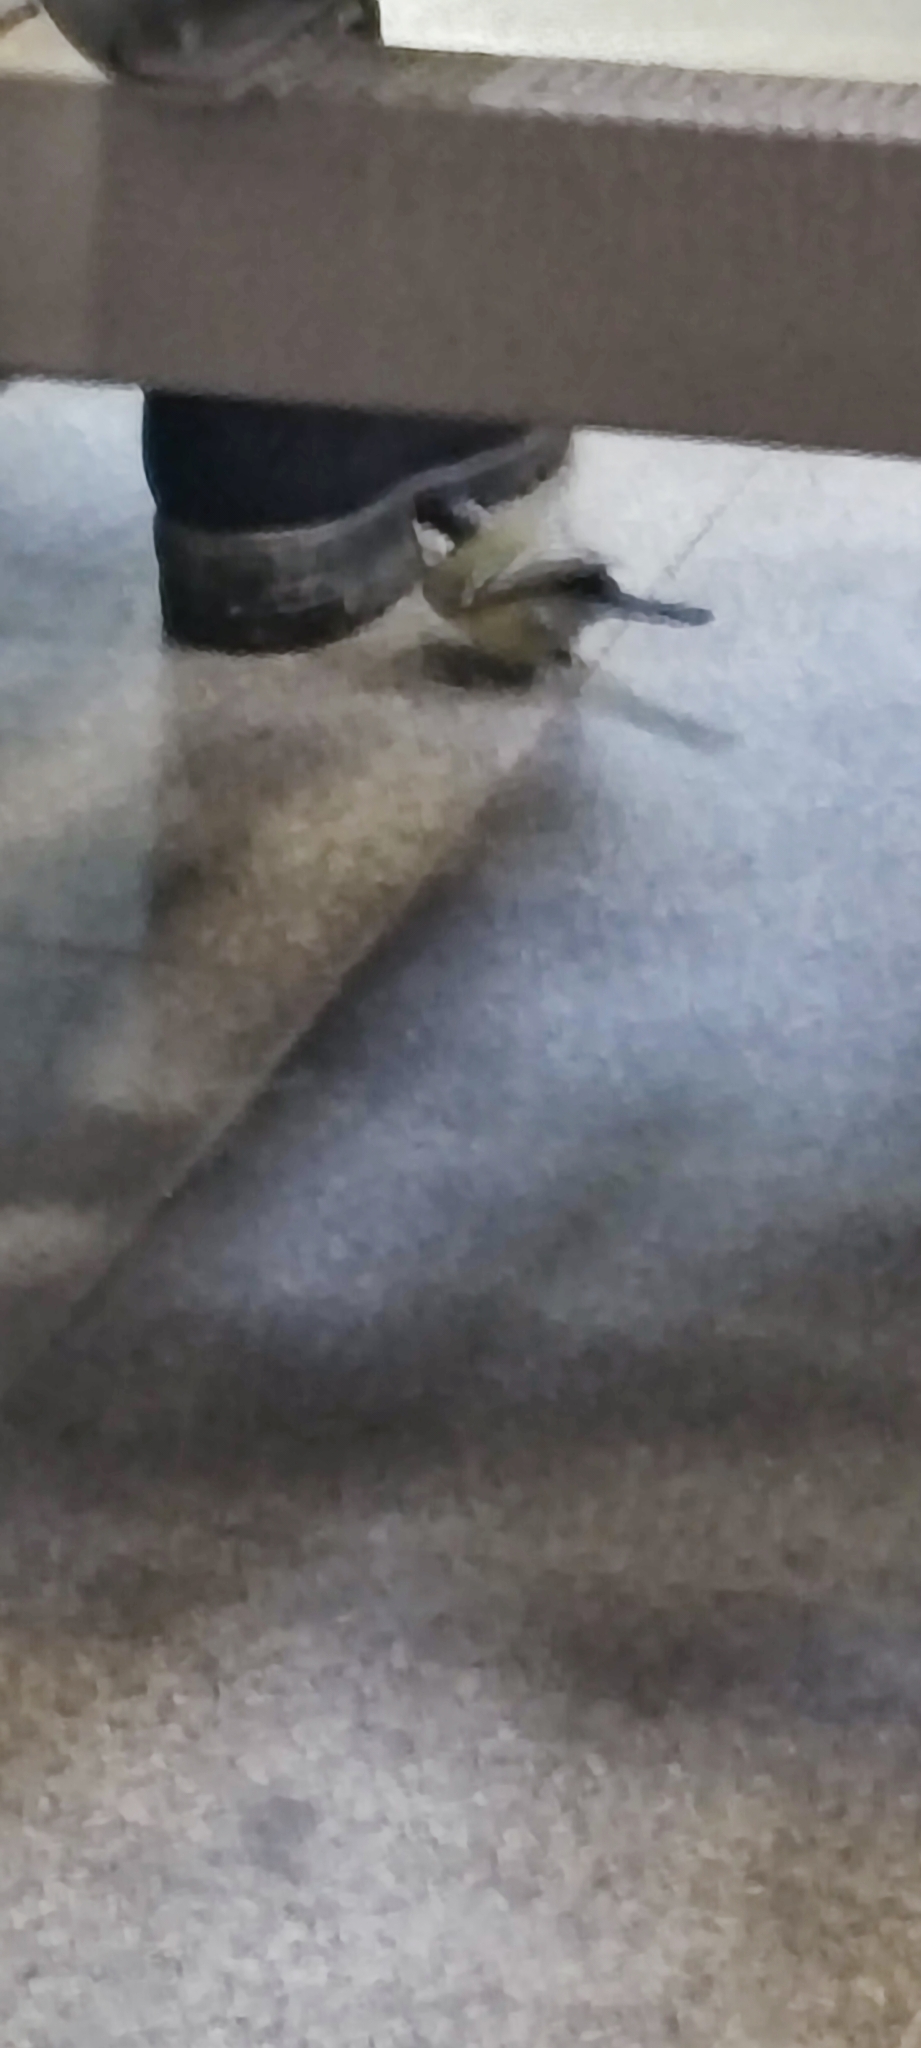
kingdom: Animalia
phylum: Chordata
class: Aves
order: Passeriformes
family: Paridae
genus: Parus
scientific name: Parus major
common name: Great tit
